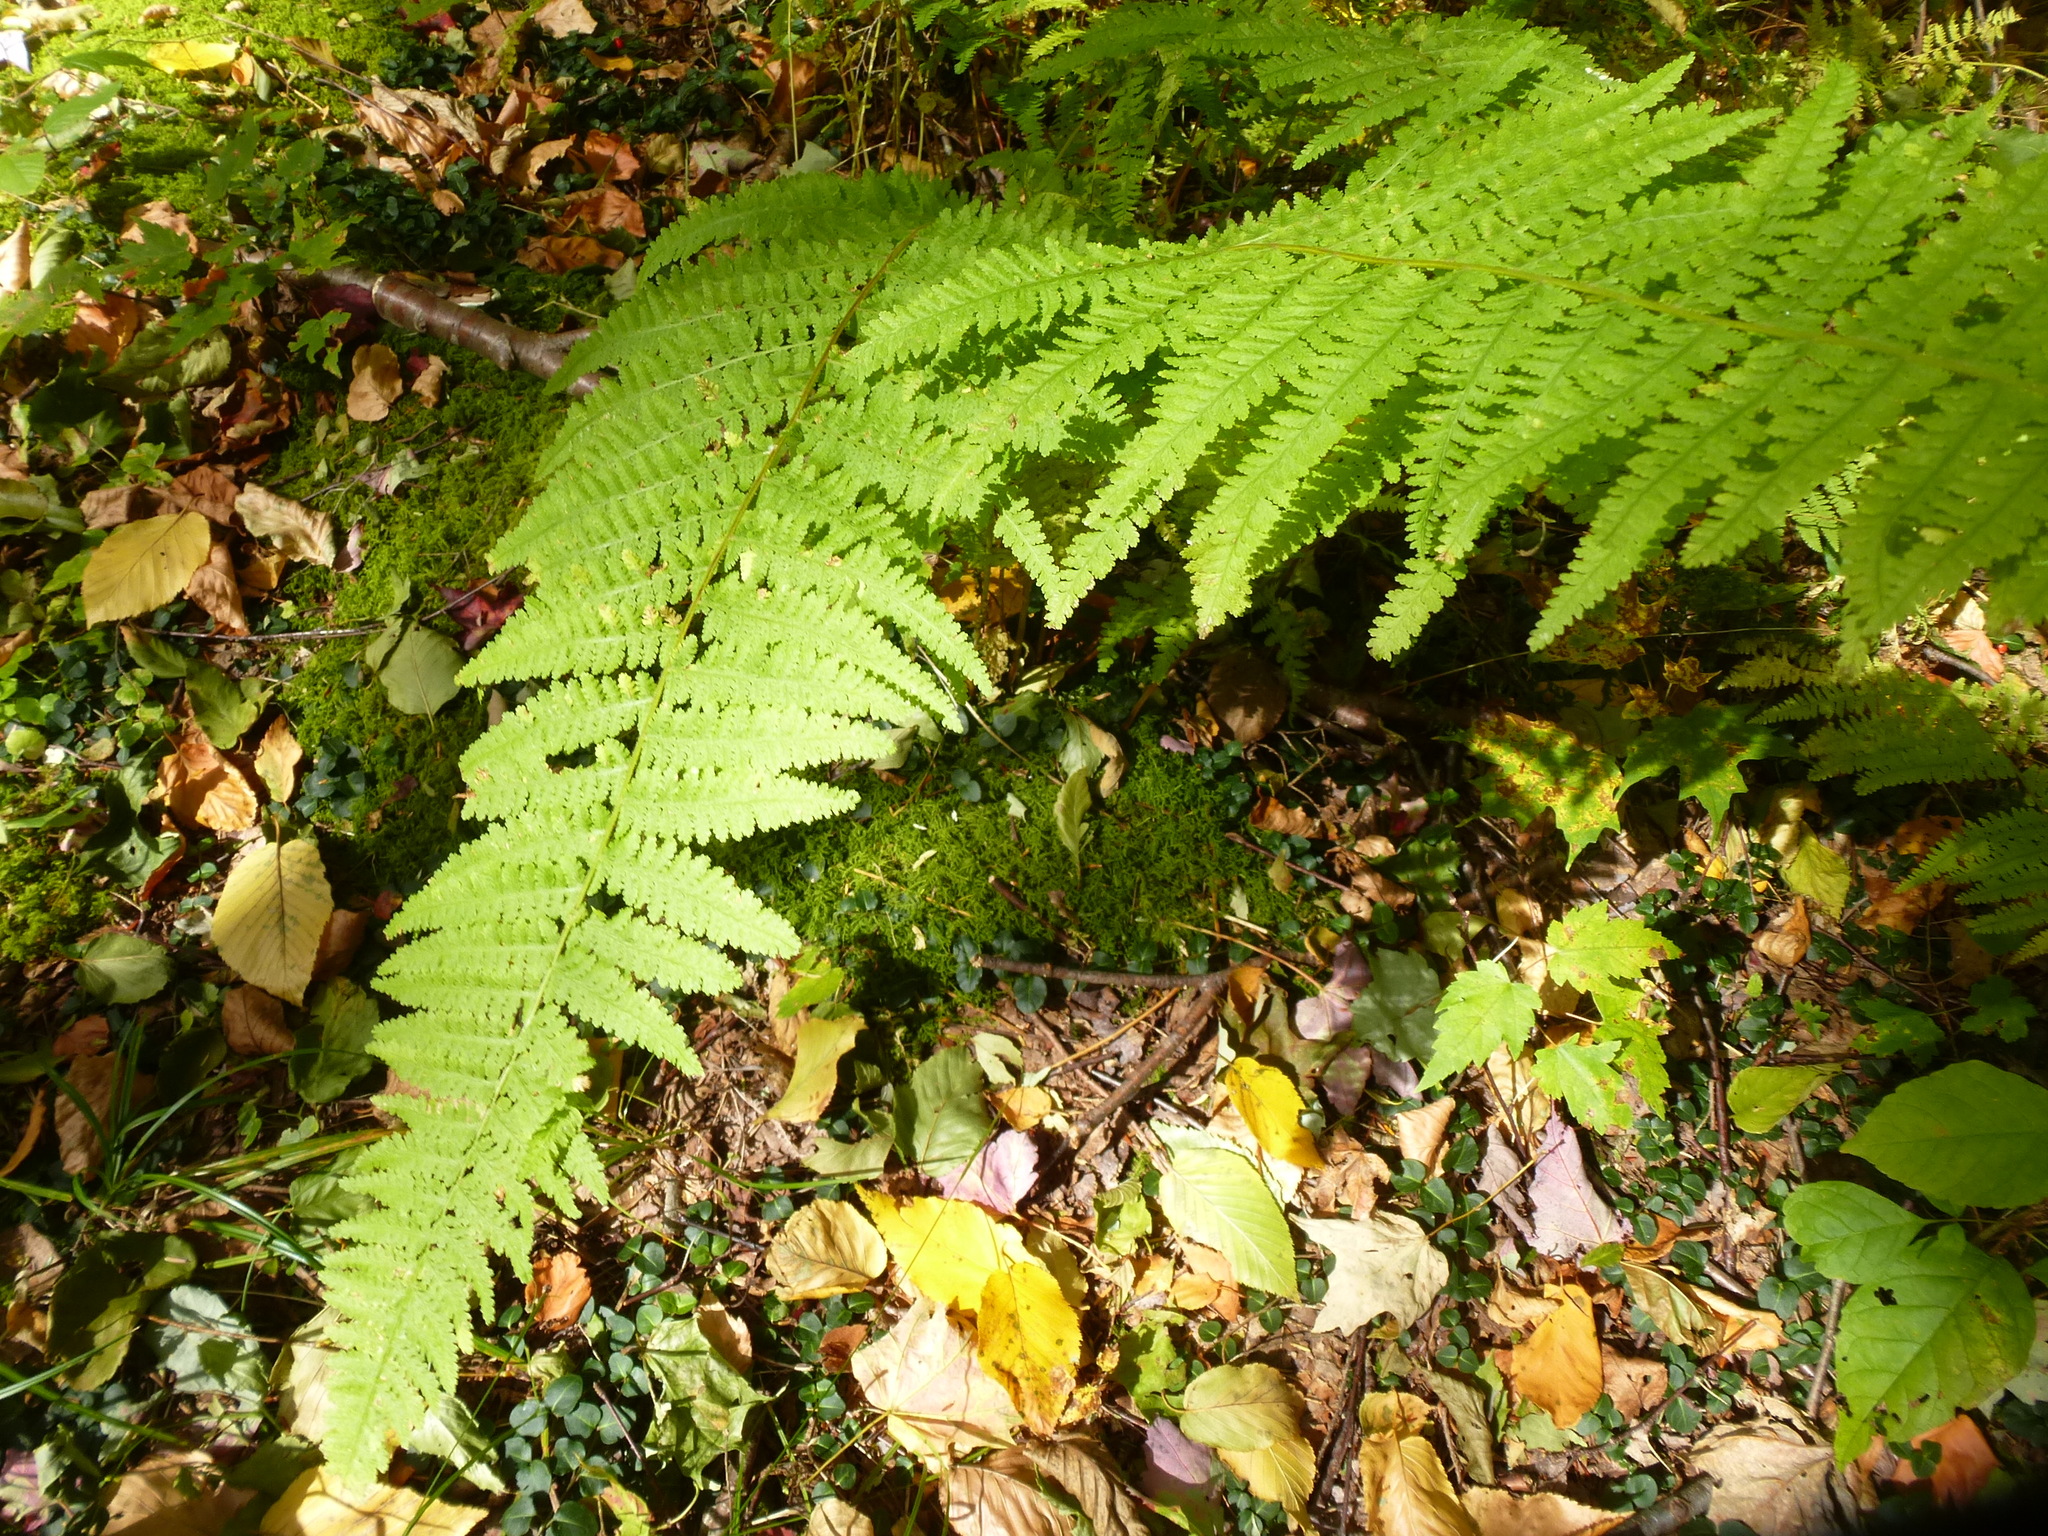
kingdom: Plantae
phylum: Tracheophyta
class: Polypodiopsida
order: Polypodiales
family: Dennstaedtiaceae
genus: Sitobolium
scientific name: Sitobolium punctilobum
